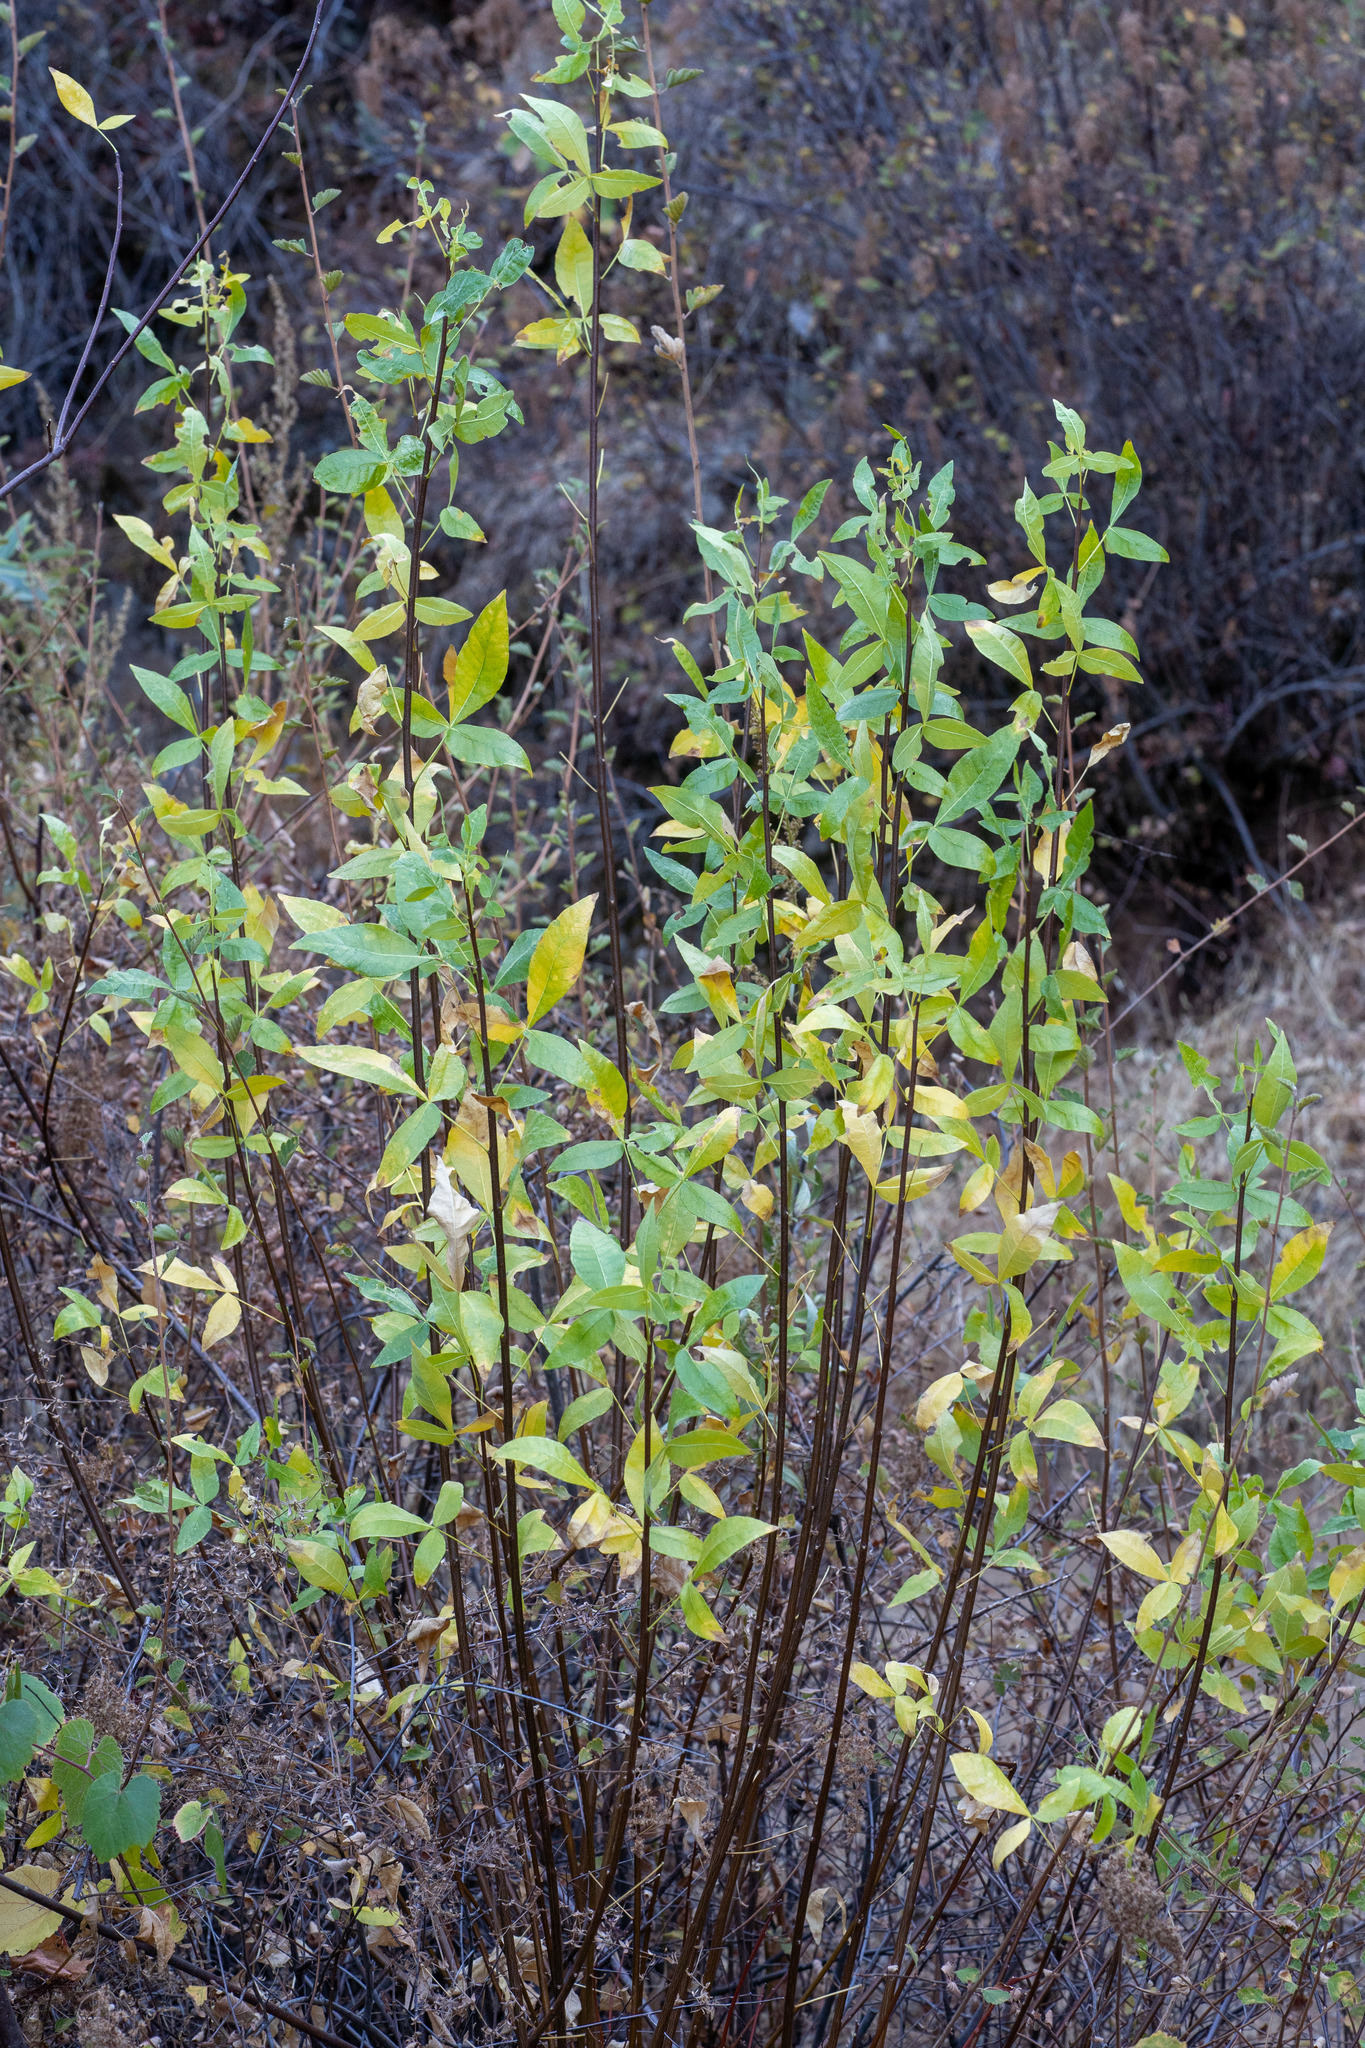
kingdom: Plantae
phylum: Tracheophyta
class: Magnoliopsida
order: Sapindales
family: Rutaceae
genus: Ptelea
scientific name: Ptelea crenulata
